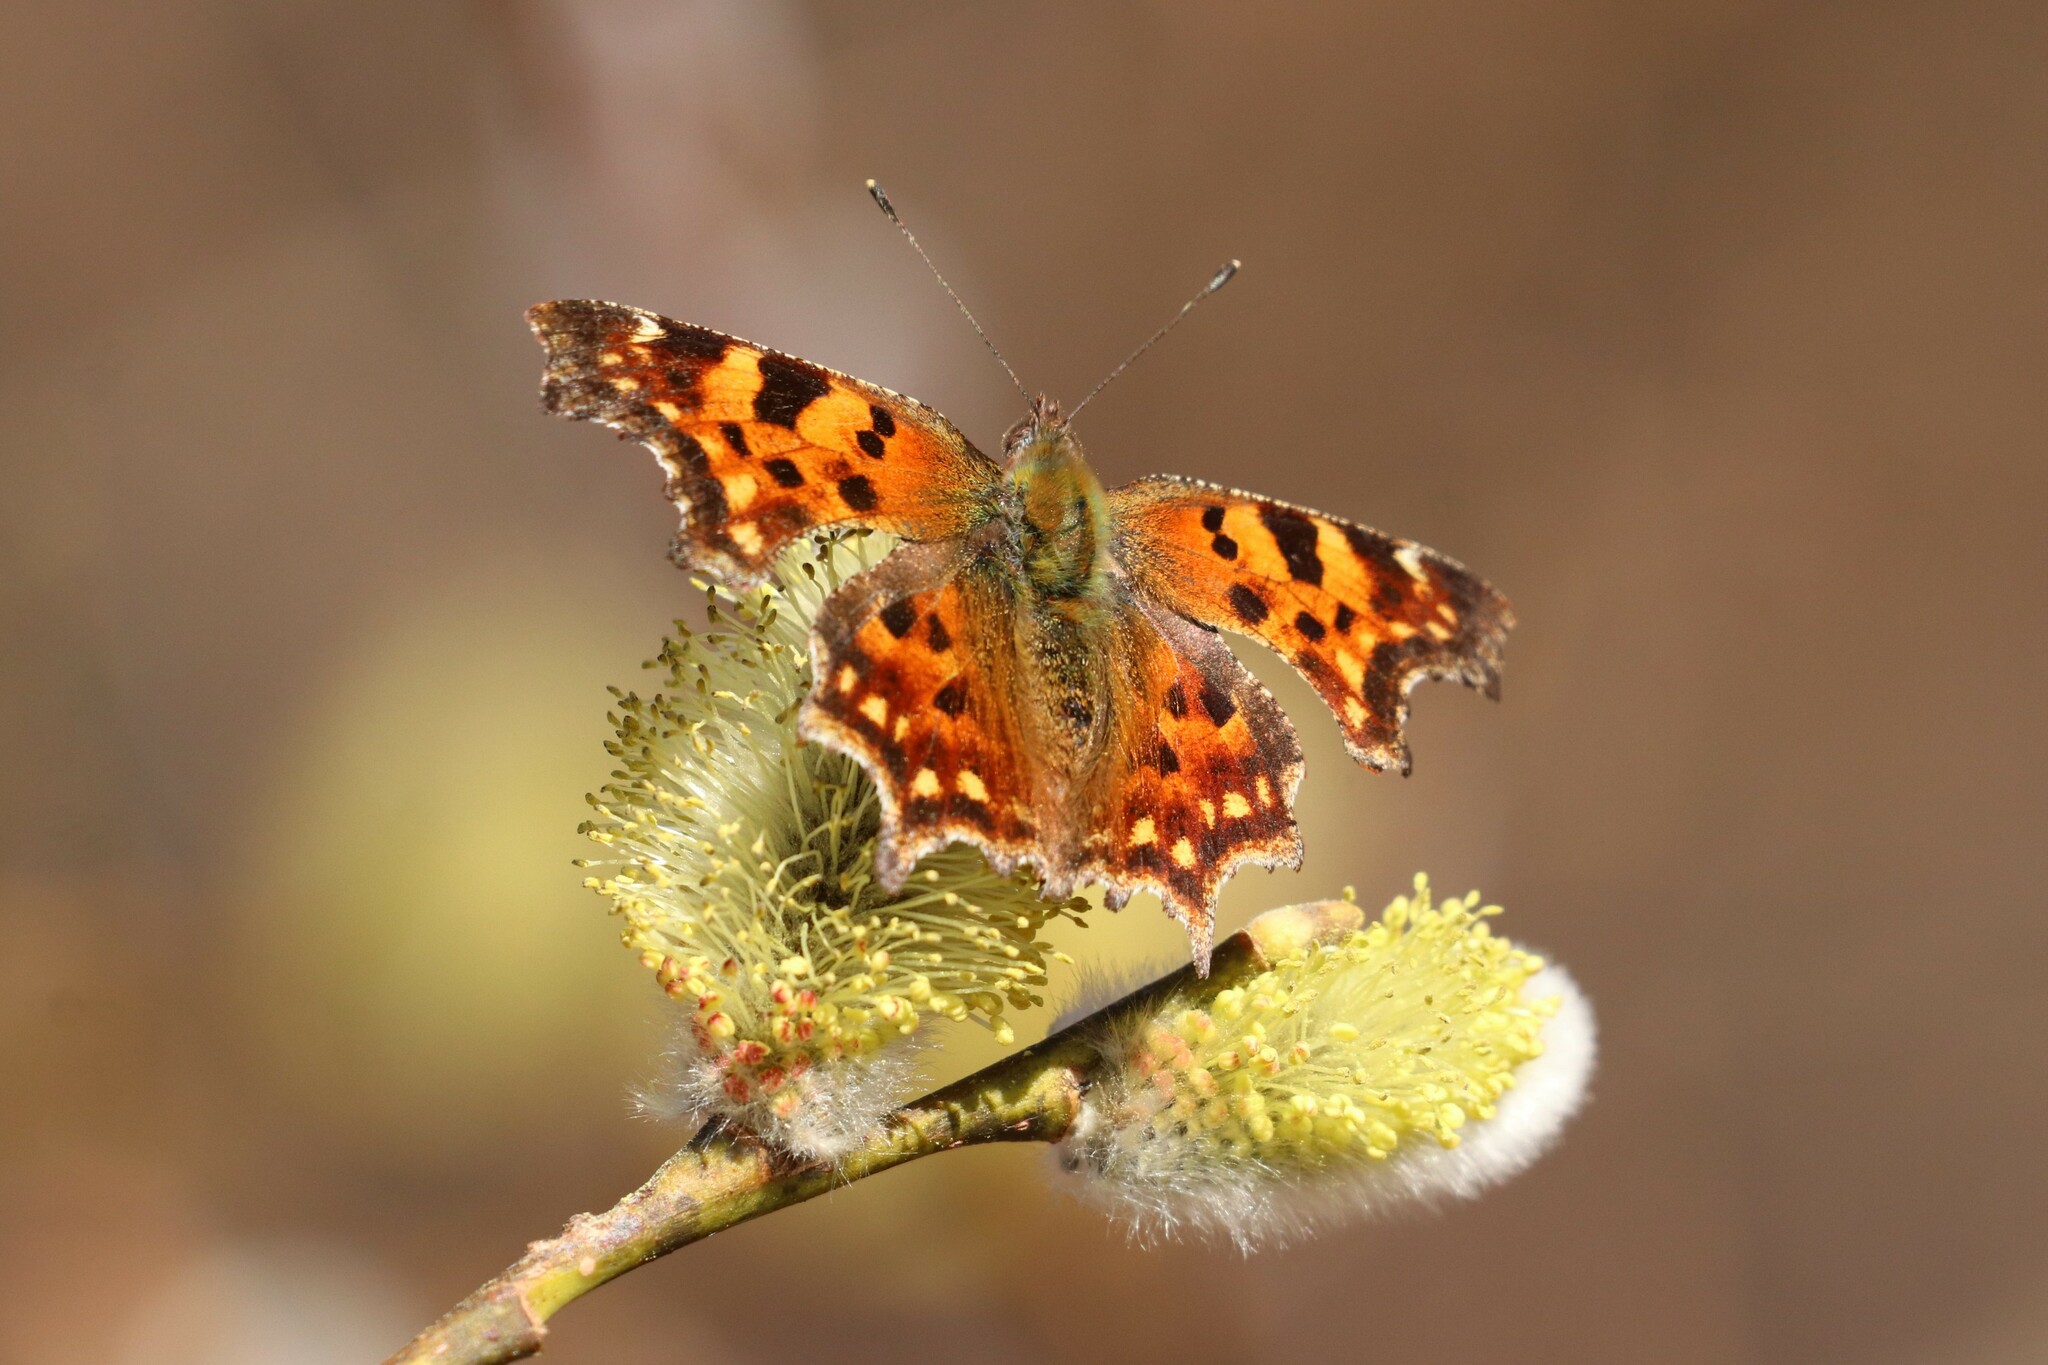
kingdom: Animalia
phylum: Arthropoda
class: Insecta
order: Lepidoptera
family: Nymphalidae
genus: Polygonia
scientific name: Polygonia c-album
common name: Comma
